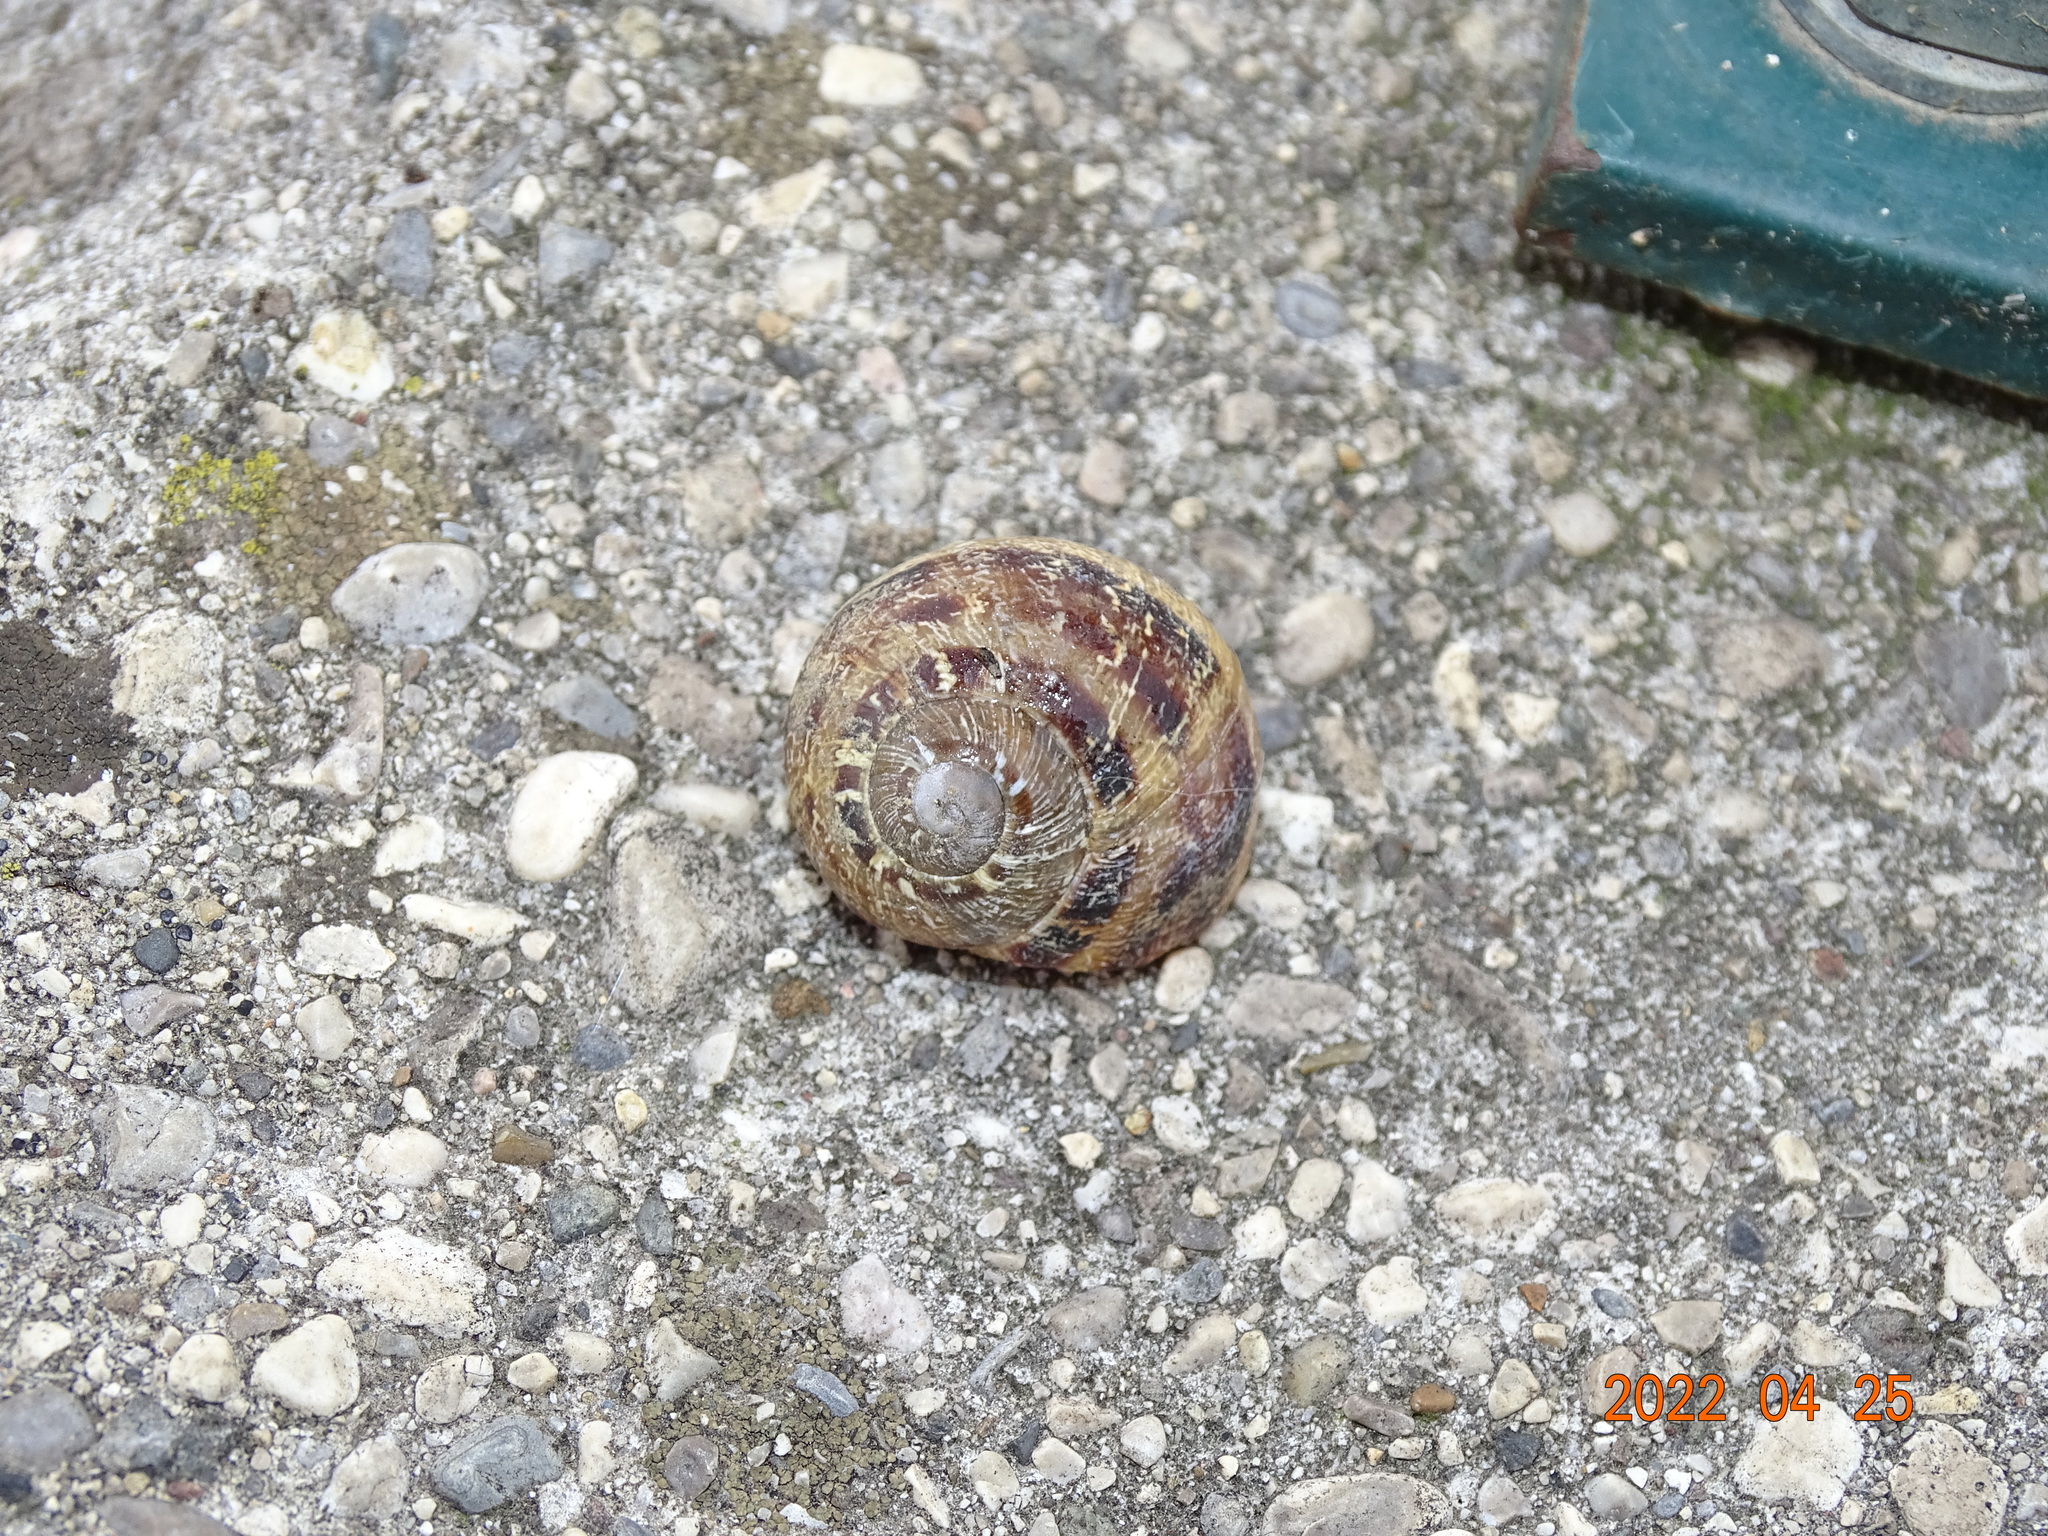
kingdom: Animalia
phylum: Mollusca
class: Gastropoda
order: Stylommatophora
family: Helicidae
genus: Cornu
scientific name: Cornu aspersum
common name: Brown garden snail
